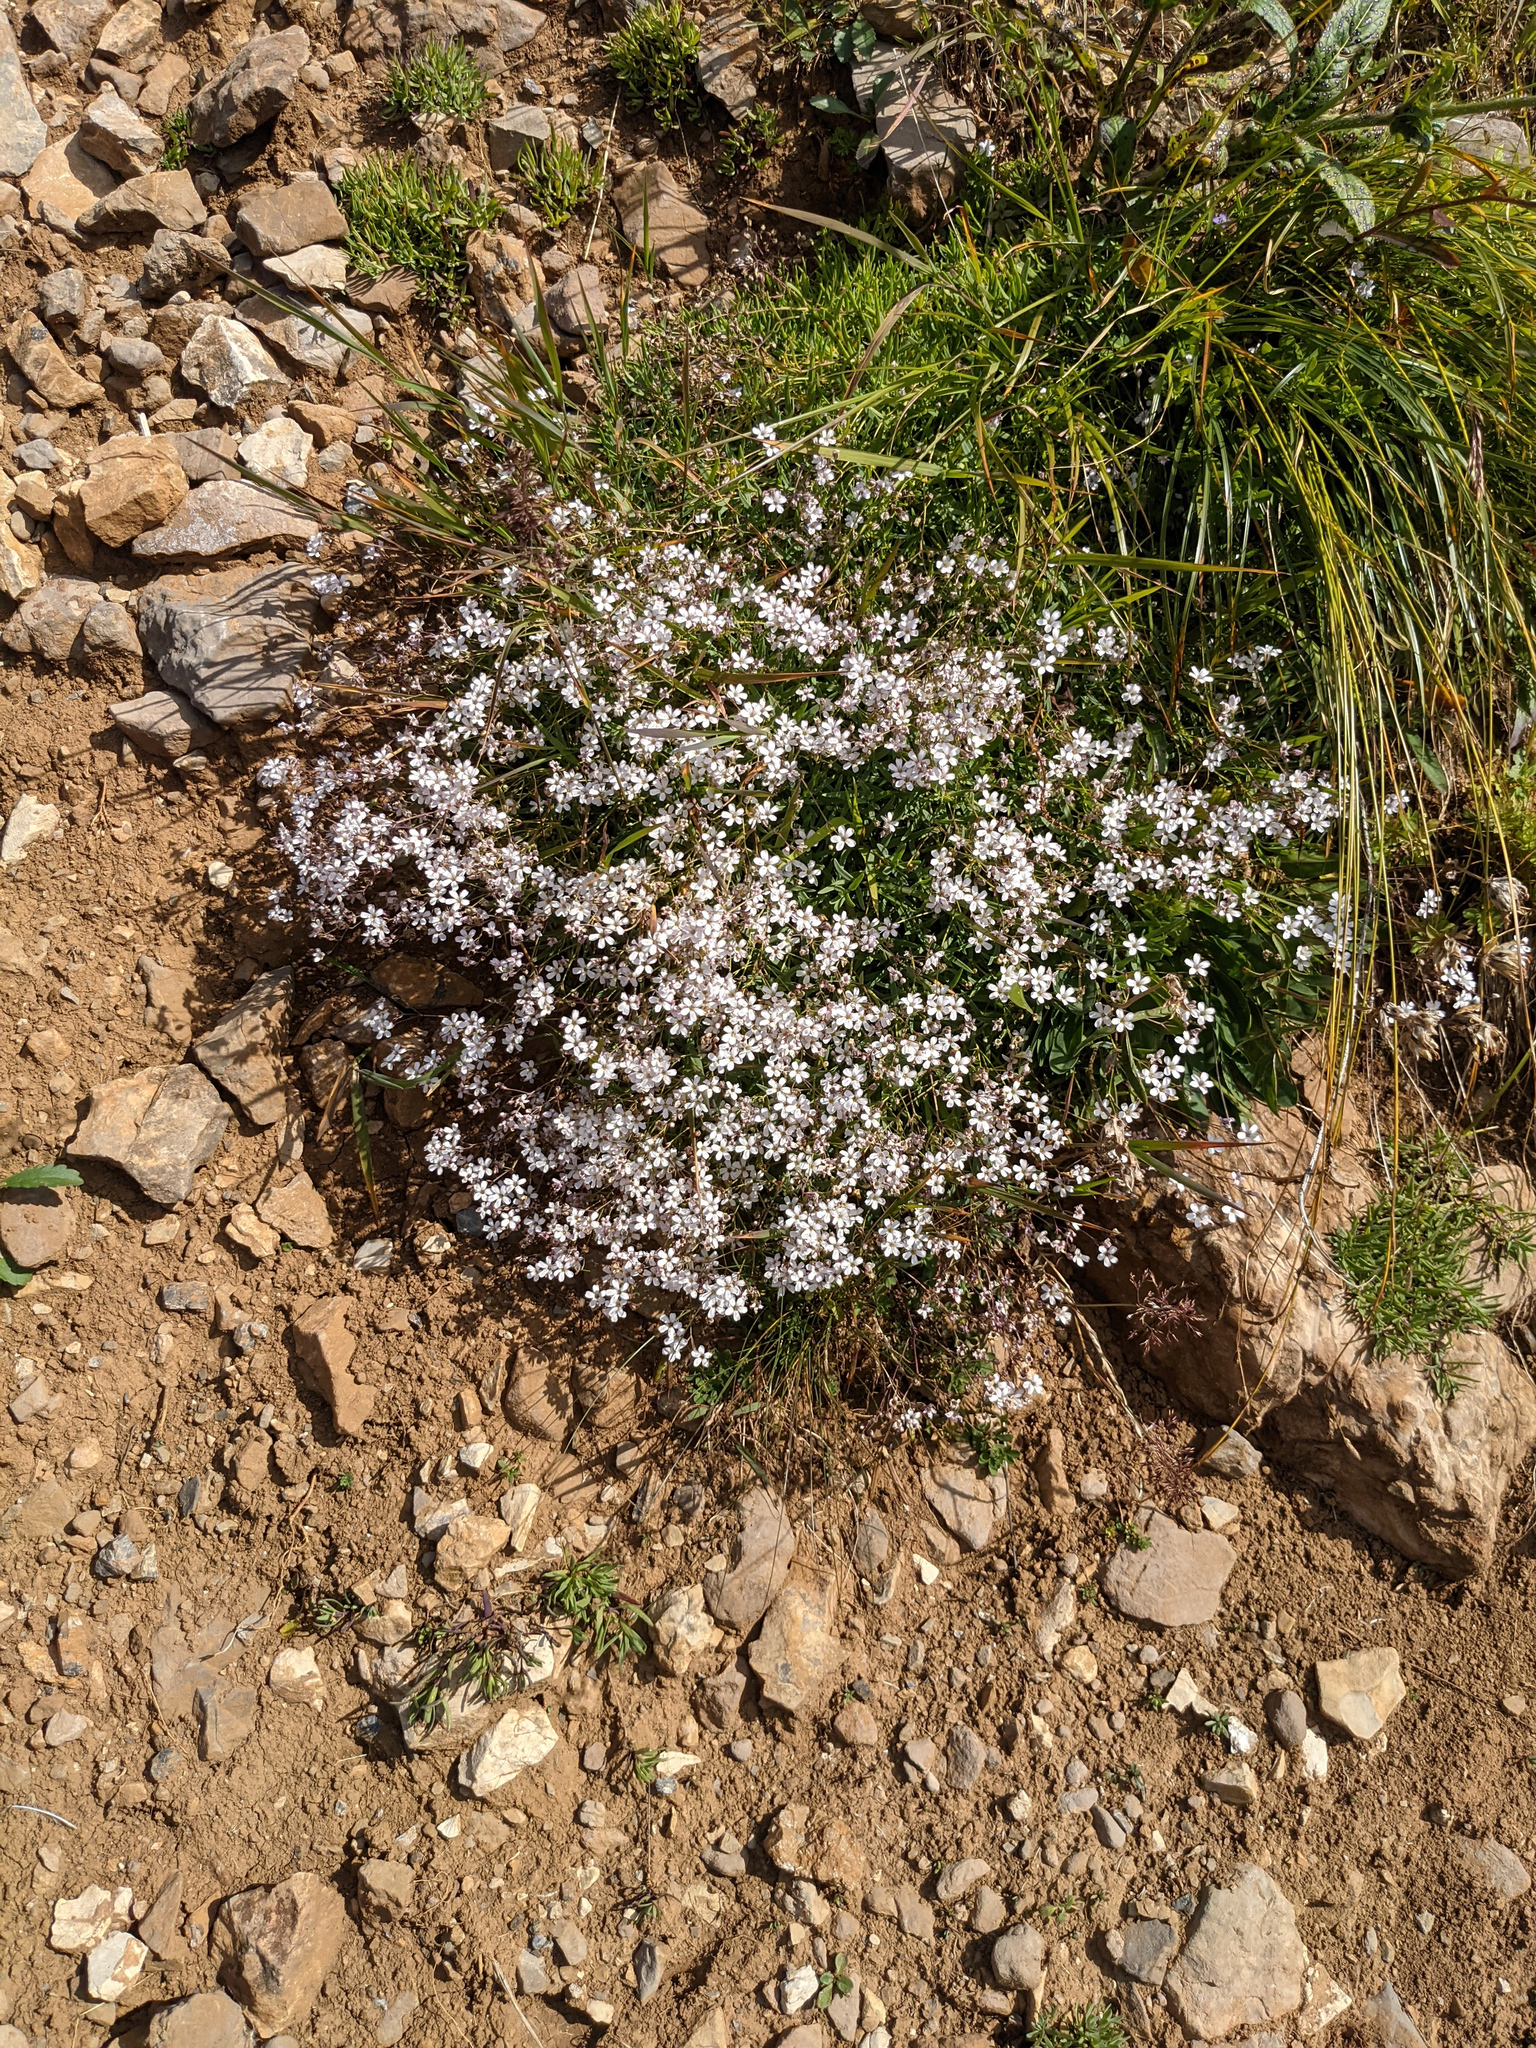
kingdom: Plantae
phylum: Tracheophyta
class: Magnoliopsida
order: Caryophyllales
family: Caryophyllaceae
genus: Gypsophila
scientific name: Gypsophila repens
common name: Creeping baby's-breath
